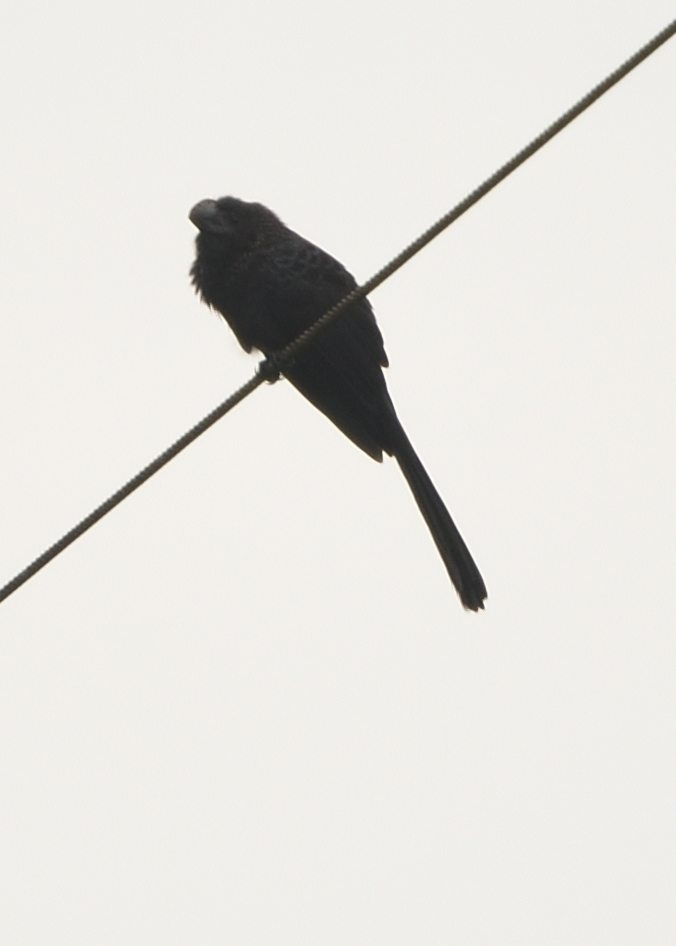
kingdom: Animalia
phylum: Chordata
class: Aves
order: Cuculiformes
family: Cuculidae
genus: Crotophaga
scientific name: Crotophaga ani
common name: Smooth-billed ani
